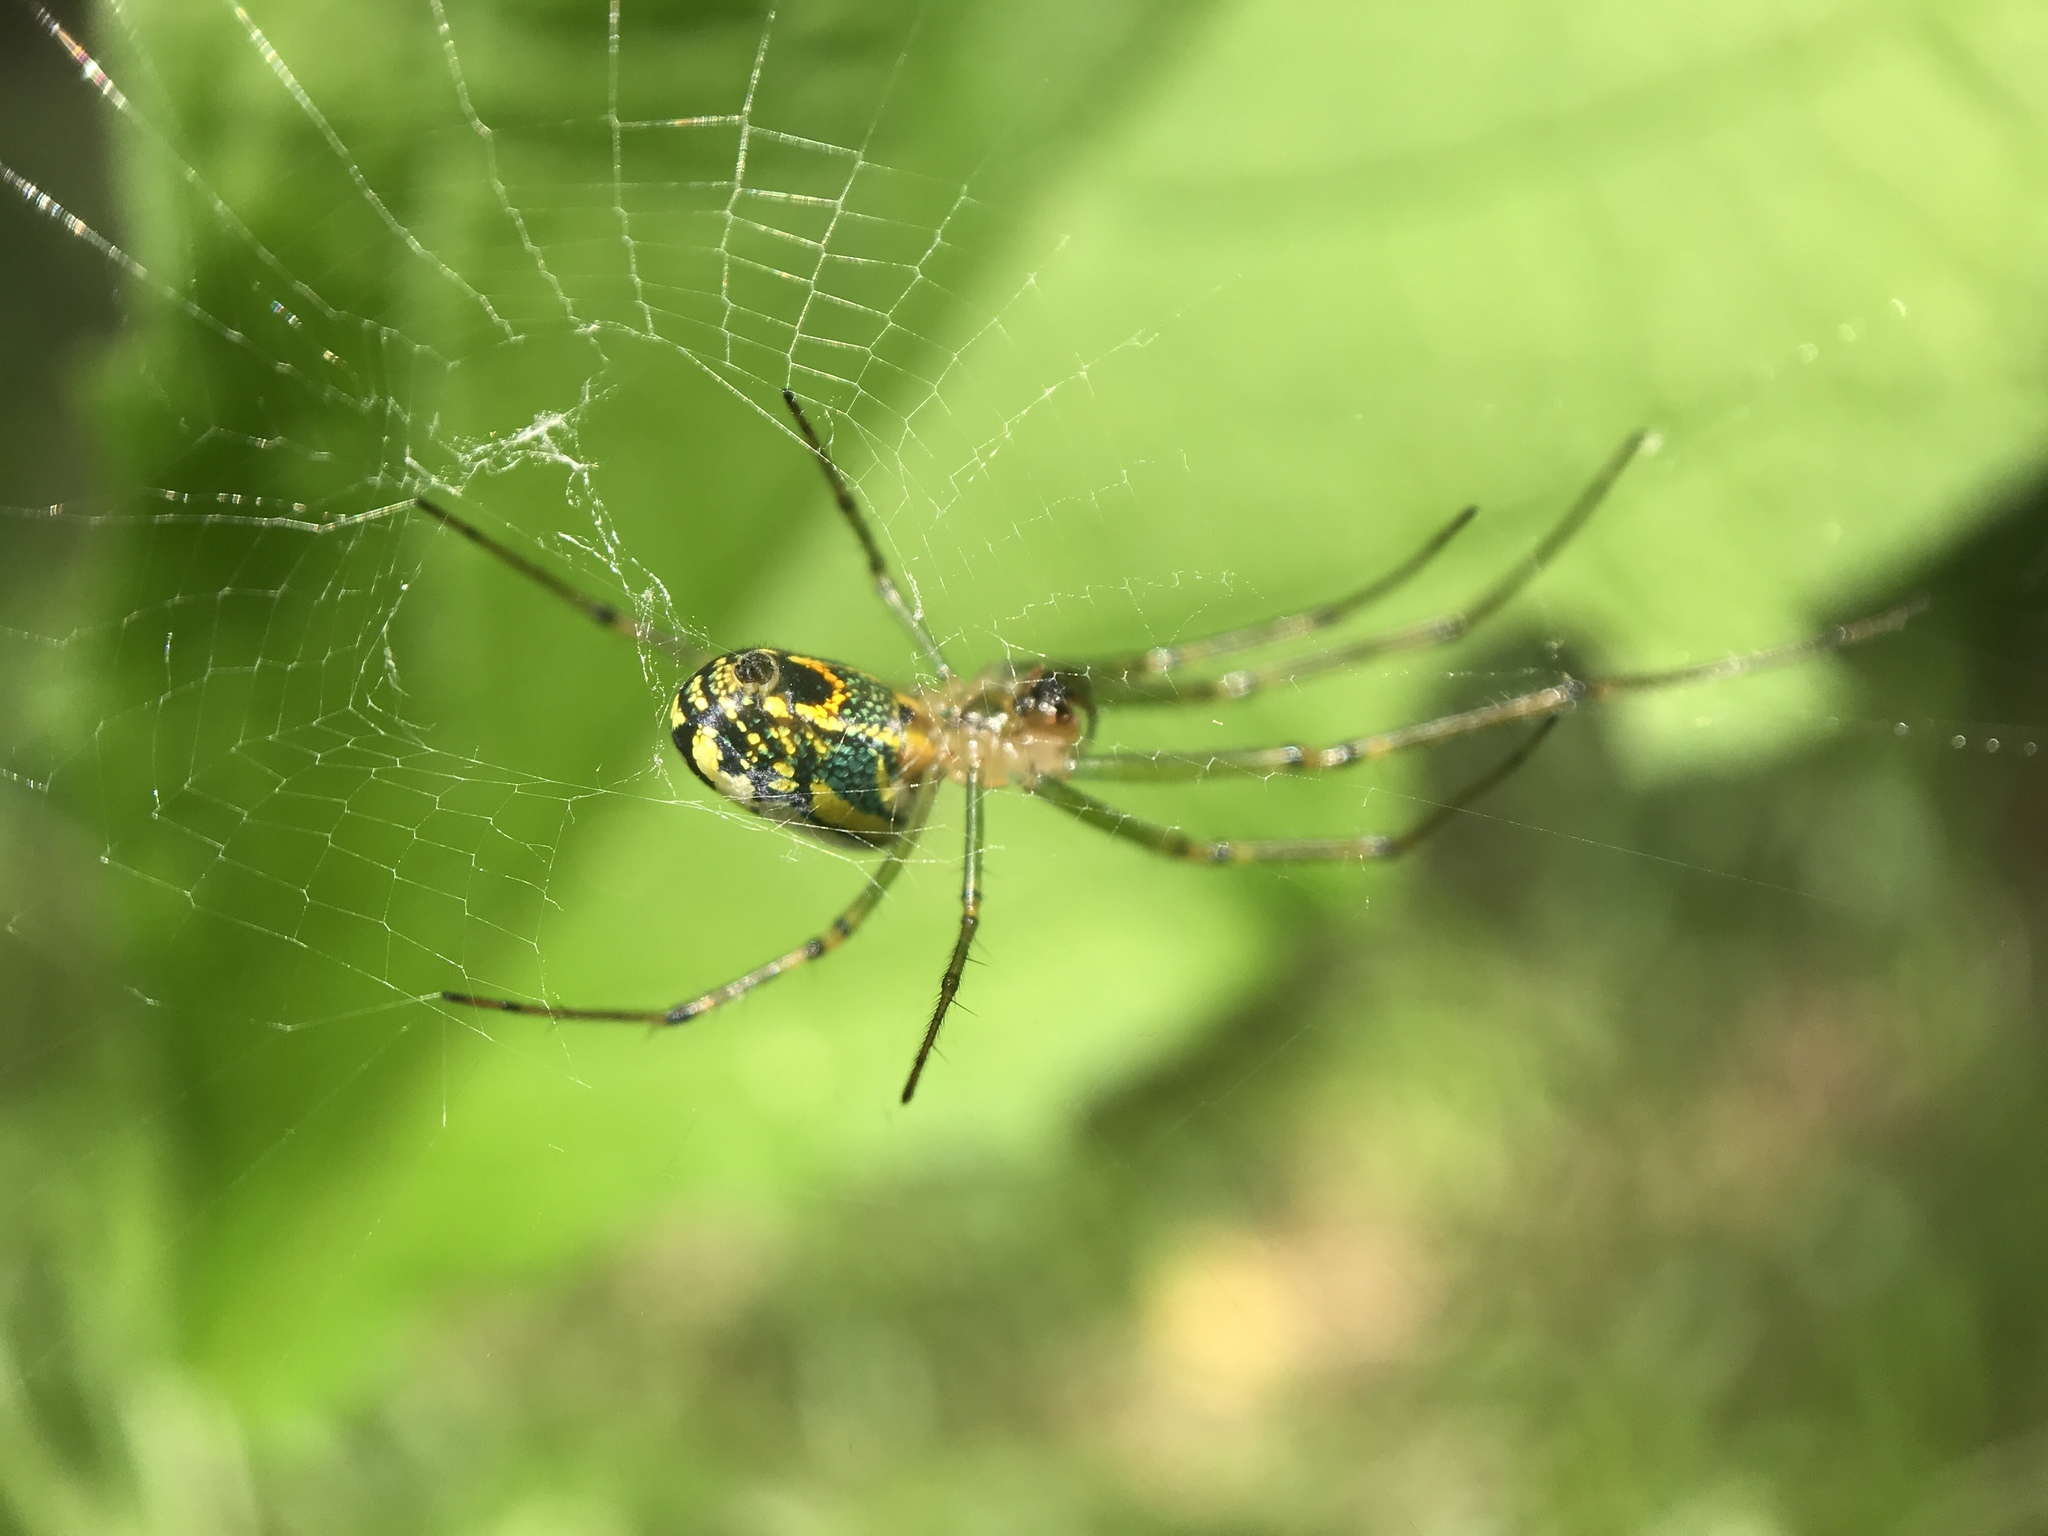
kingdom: Animalia
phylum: Arthropoda
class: Arachnida
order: Araneae
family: Tetragnathidae
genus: Leucauge
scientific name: Leucauge venusta
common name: Longjawed orb weavers
